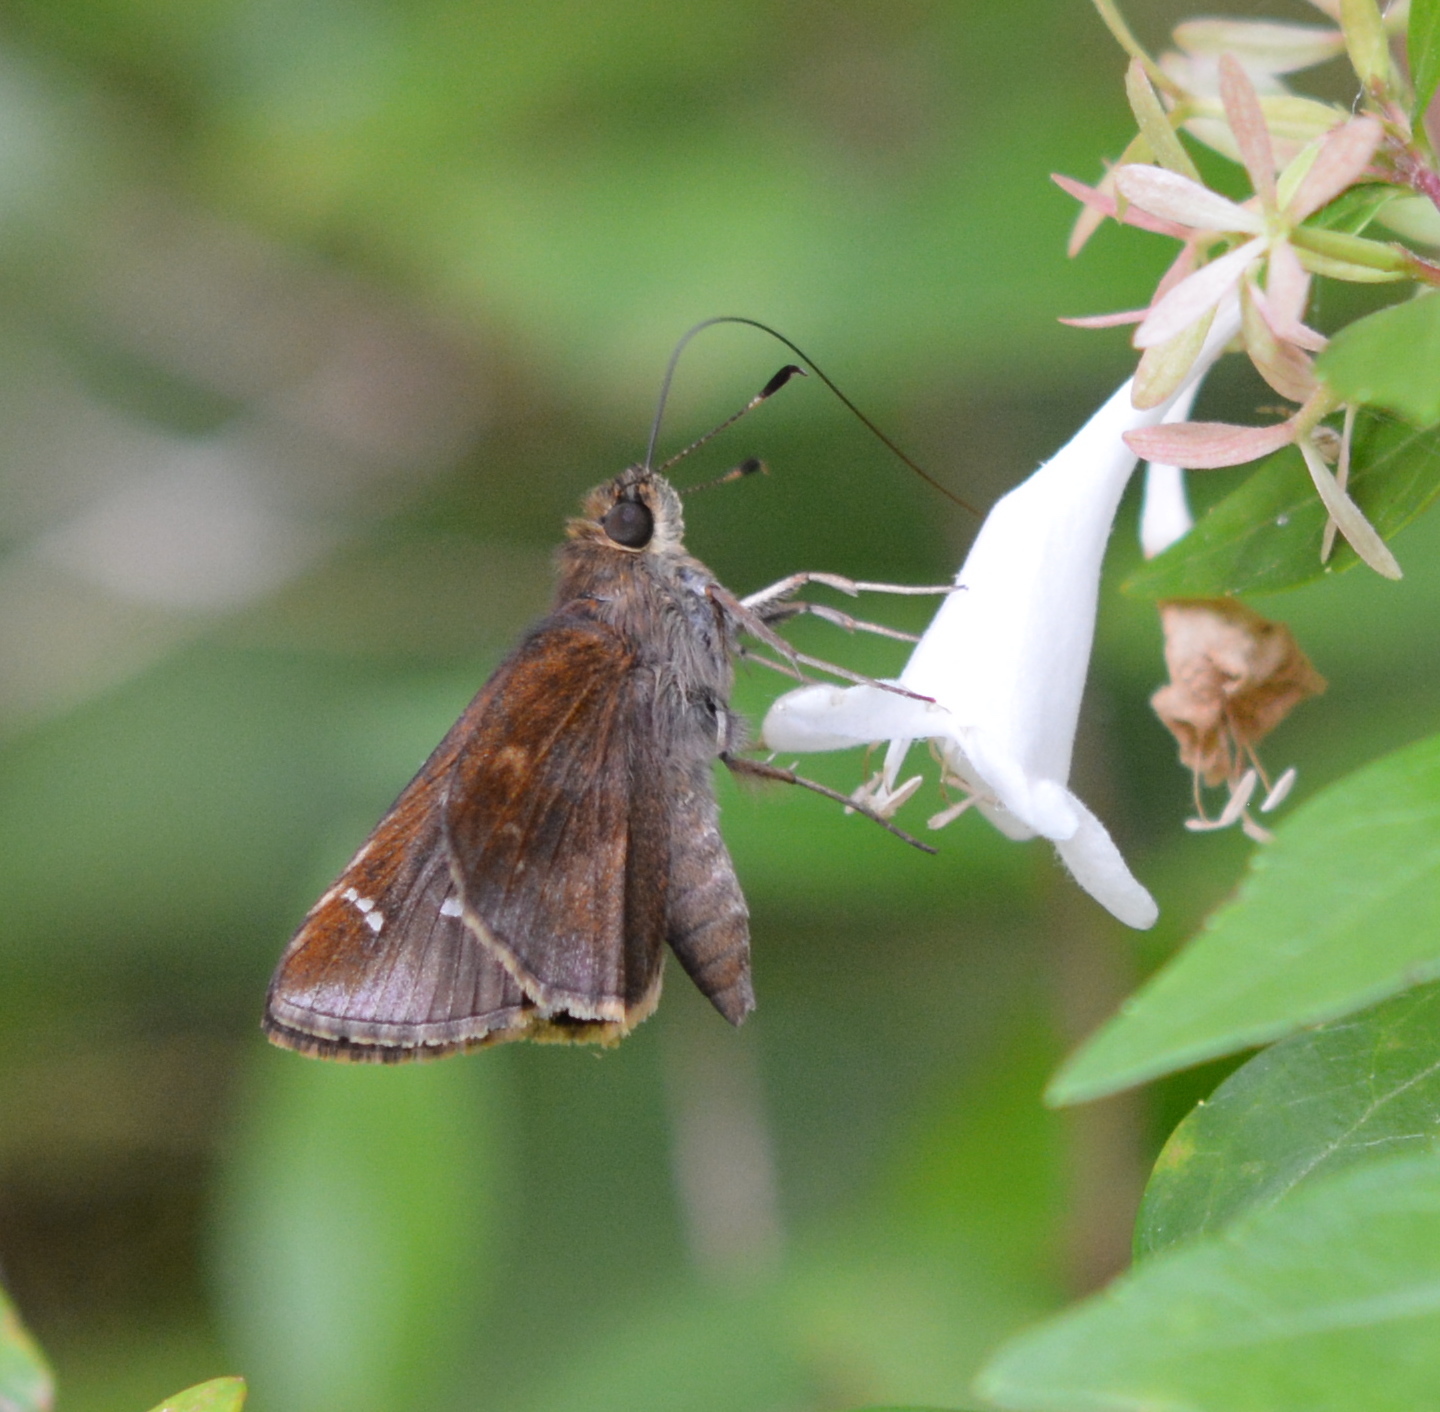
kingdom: Animalia
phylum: Arthropoda
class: Insecta
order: Lepidoptera
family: Hesperiidae
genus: Lerema
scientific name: Lerema accius
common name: Clouded skipper
